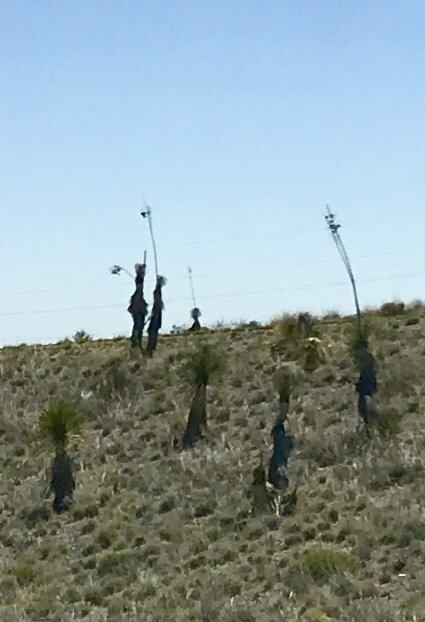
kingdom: Plantae
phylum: Tracheophyta
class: Liliopsida
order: Asparagales
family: Asparagaceae
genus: Yucca
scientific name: Yucca elata
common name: Palmella
